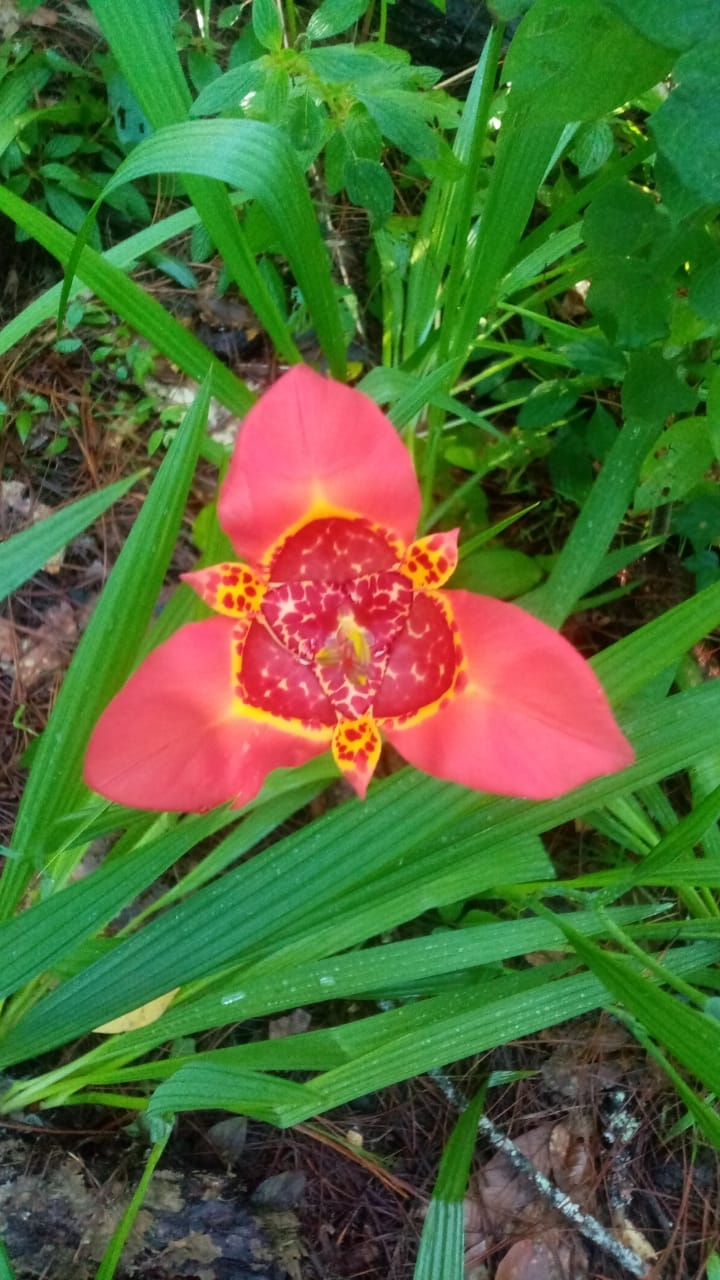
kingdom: Plantae
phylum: Tracheophyta
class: Liliopsida
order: Asparagales
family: Iridaceae
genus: Tigridia
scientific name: Tigridia pavonia
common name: Peacock-flower
